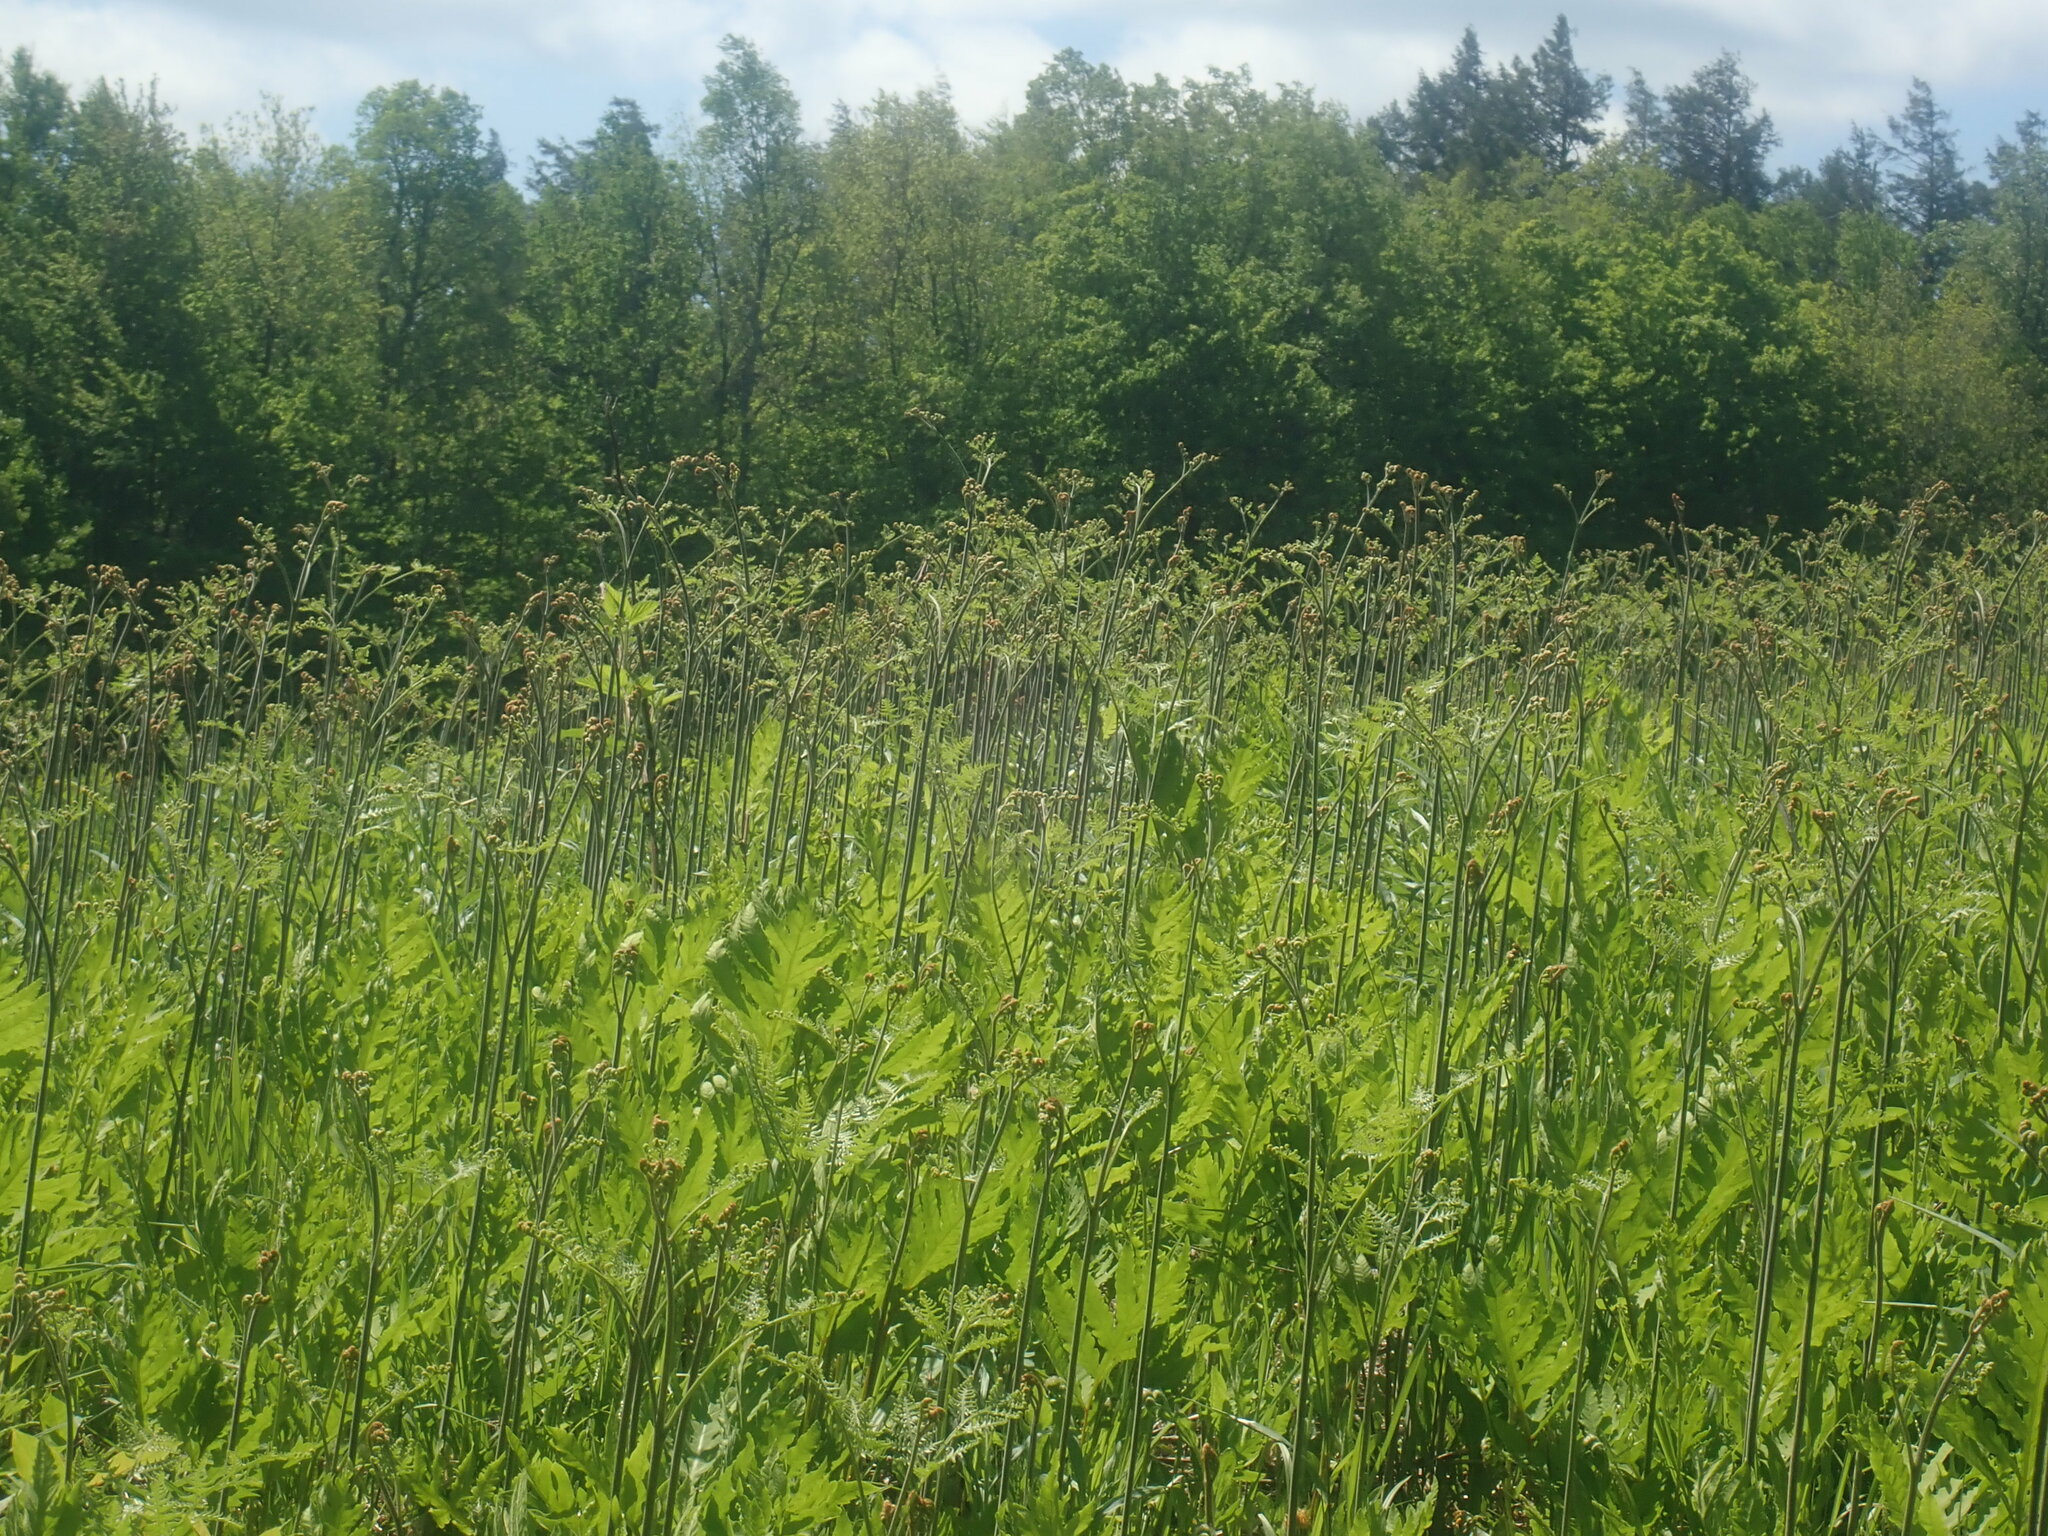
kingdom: Plantae
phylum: Tracheophyta
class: Polypodiopsida
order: Polypodiales
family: Dennstaedtiaceae
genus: Pteridium
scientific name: Pteridium aquilinum
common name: Bracken
